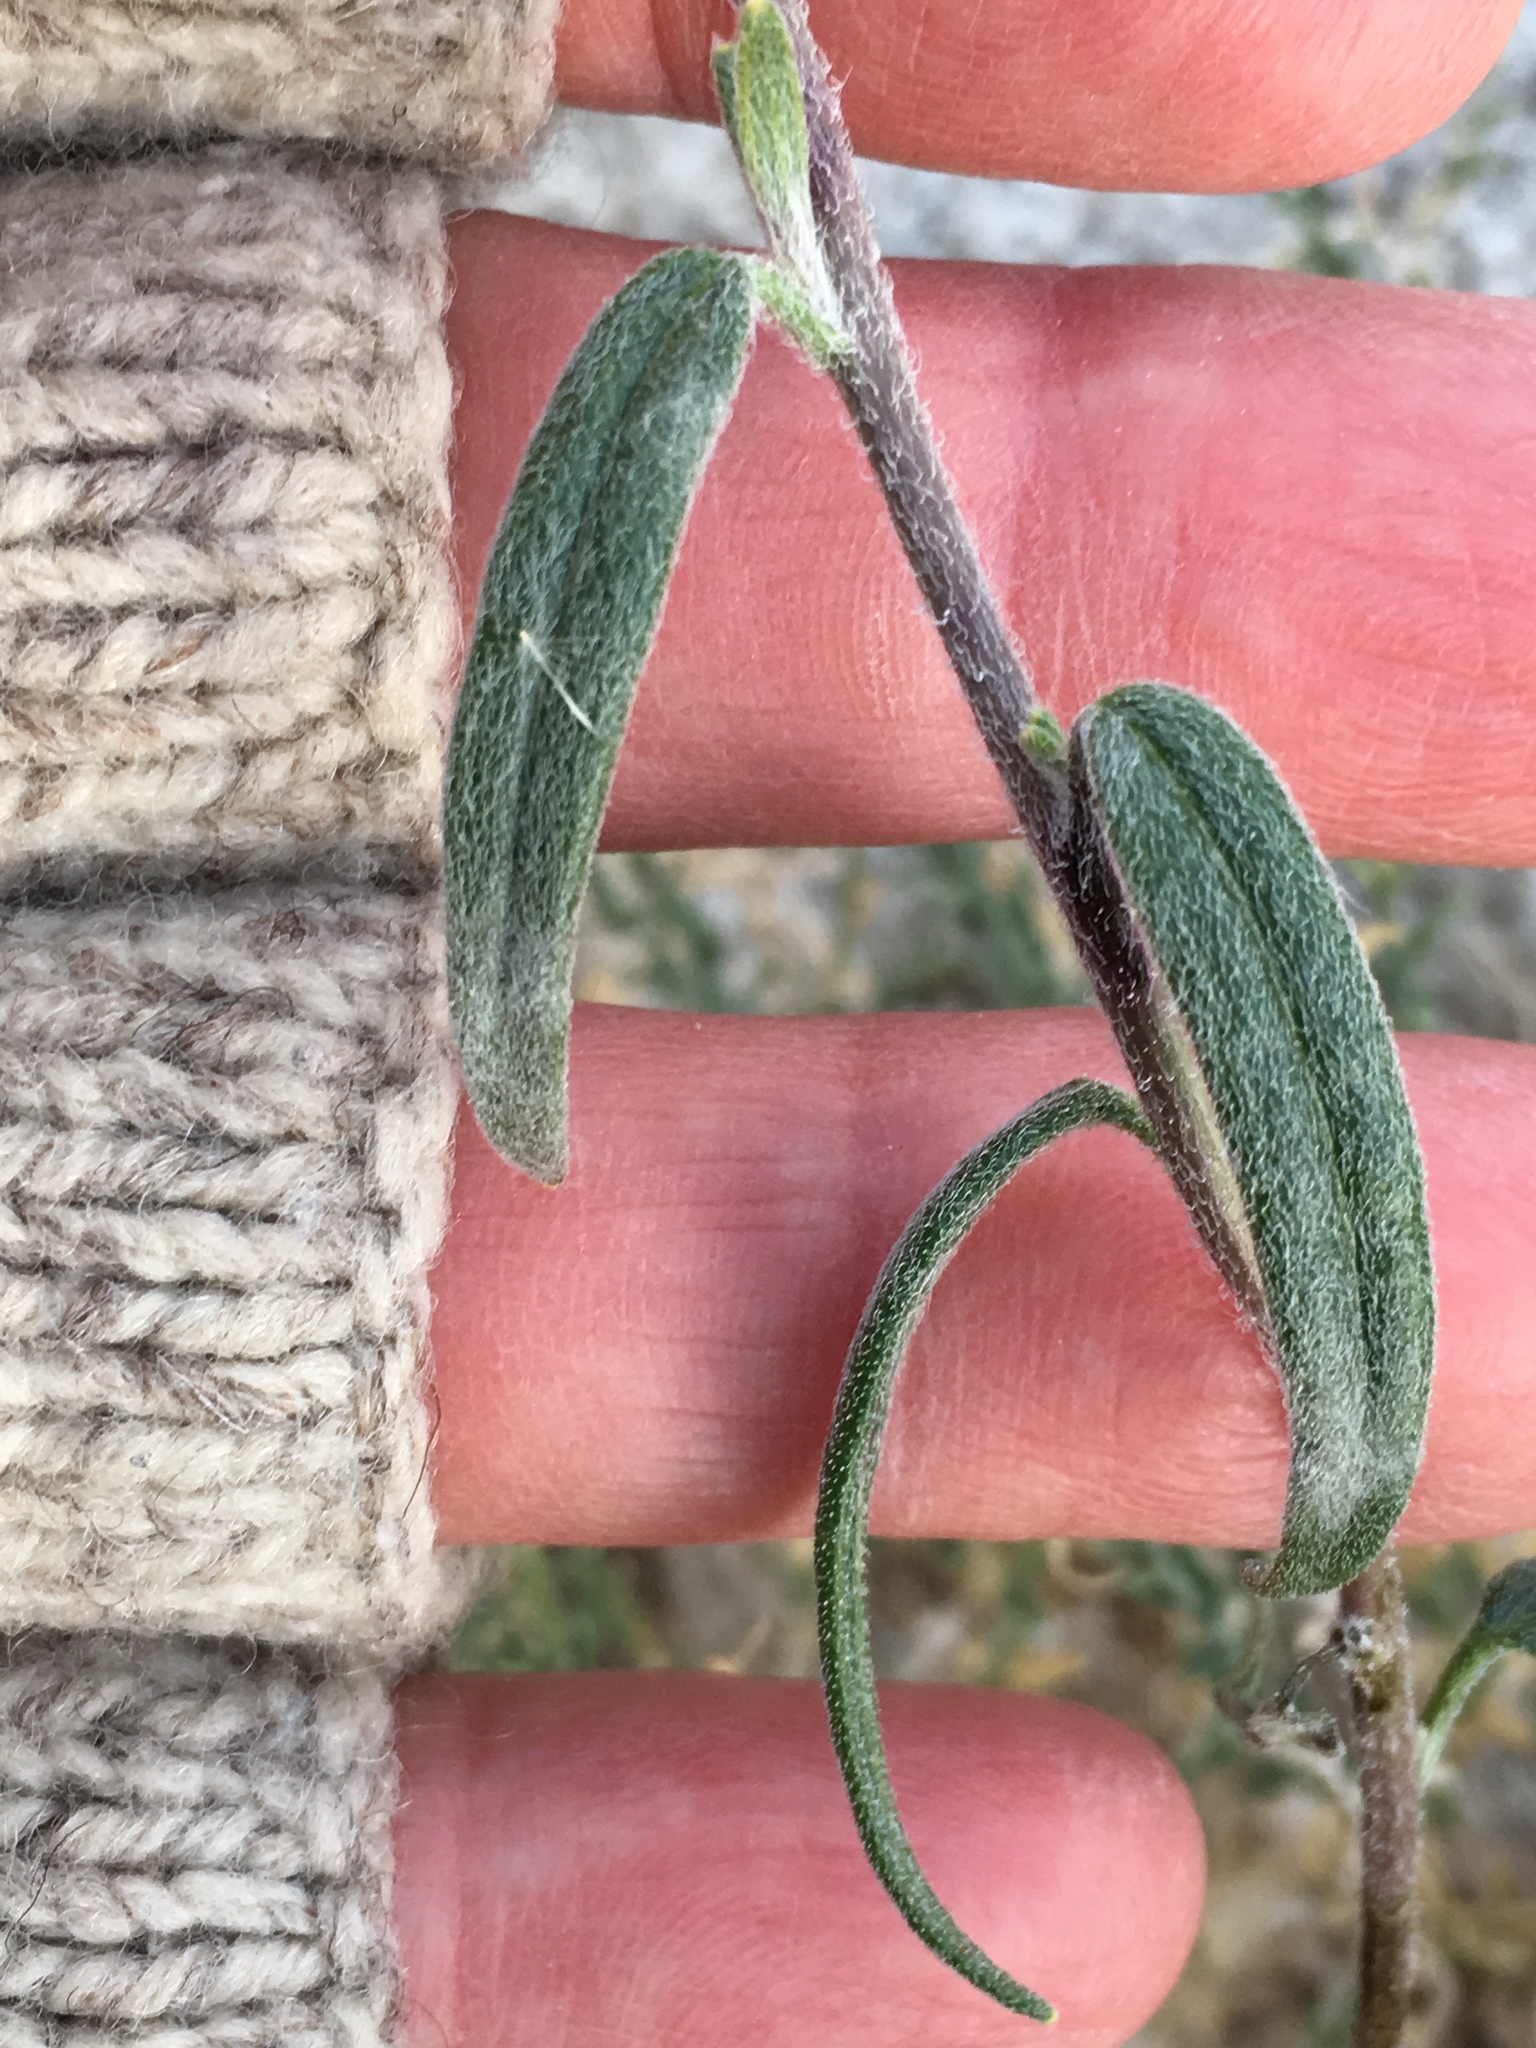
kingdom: Plantae
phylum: Tracheophyta
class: Magnoliopsida
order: Asterales
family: Asteraceae
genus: Palafoxia
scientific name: Palafoxia arida
